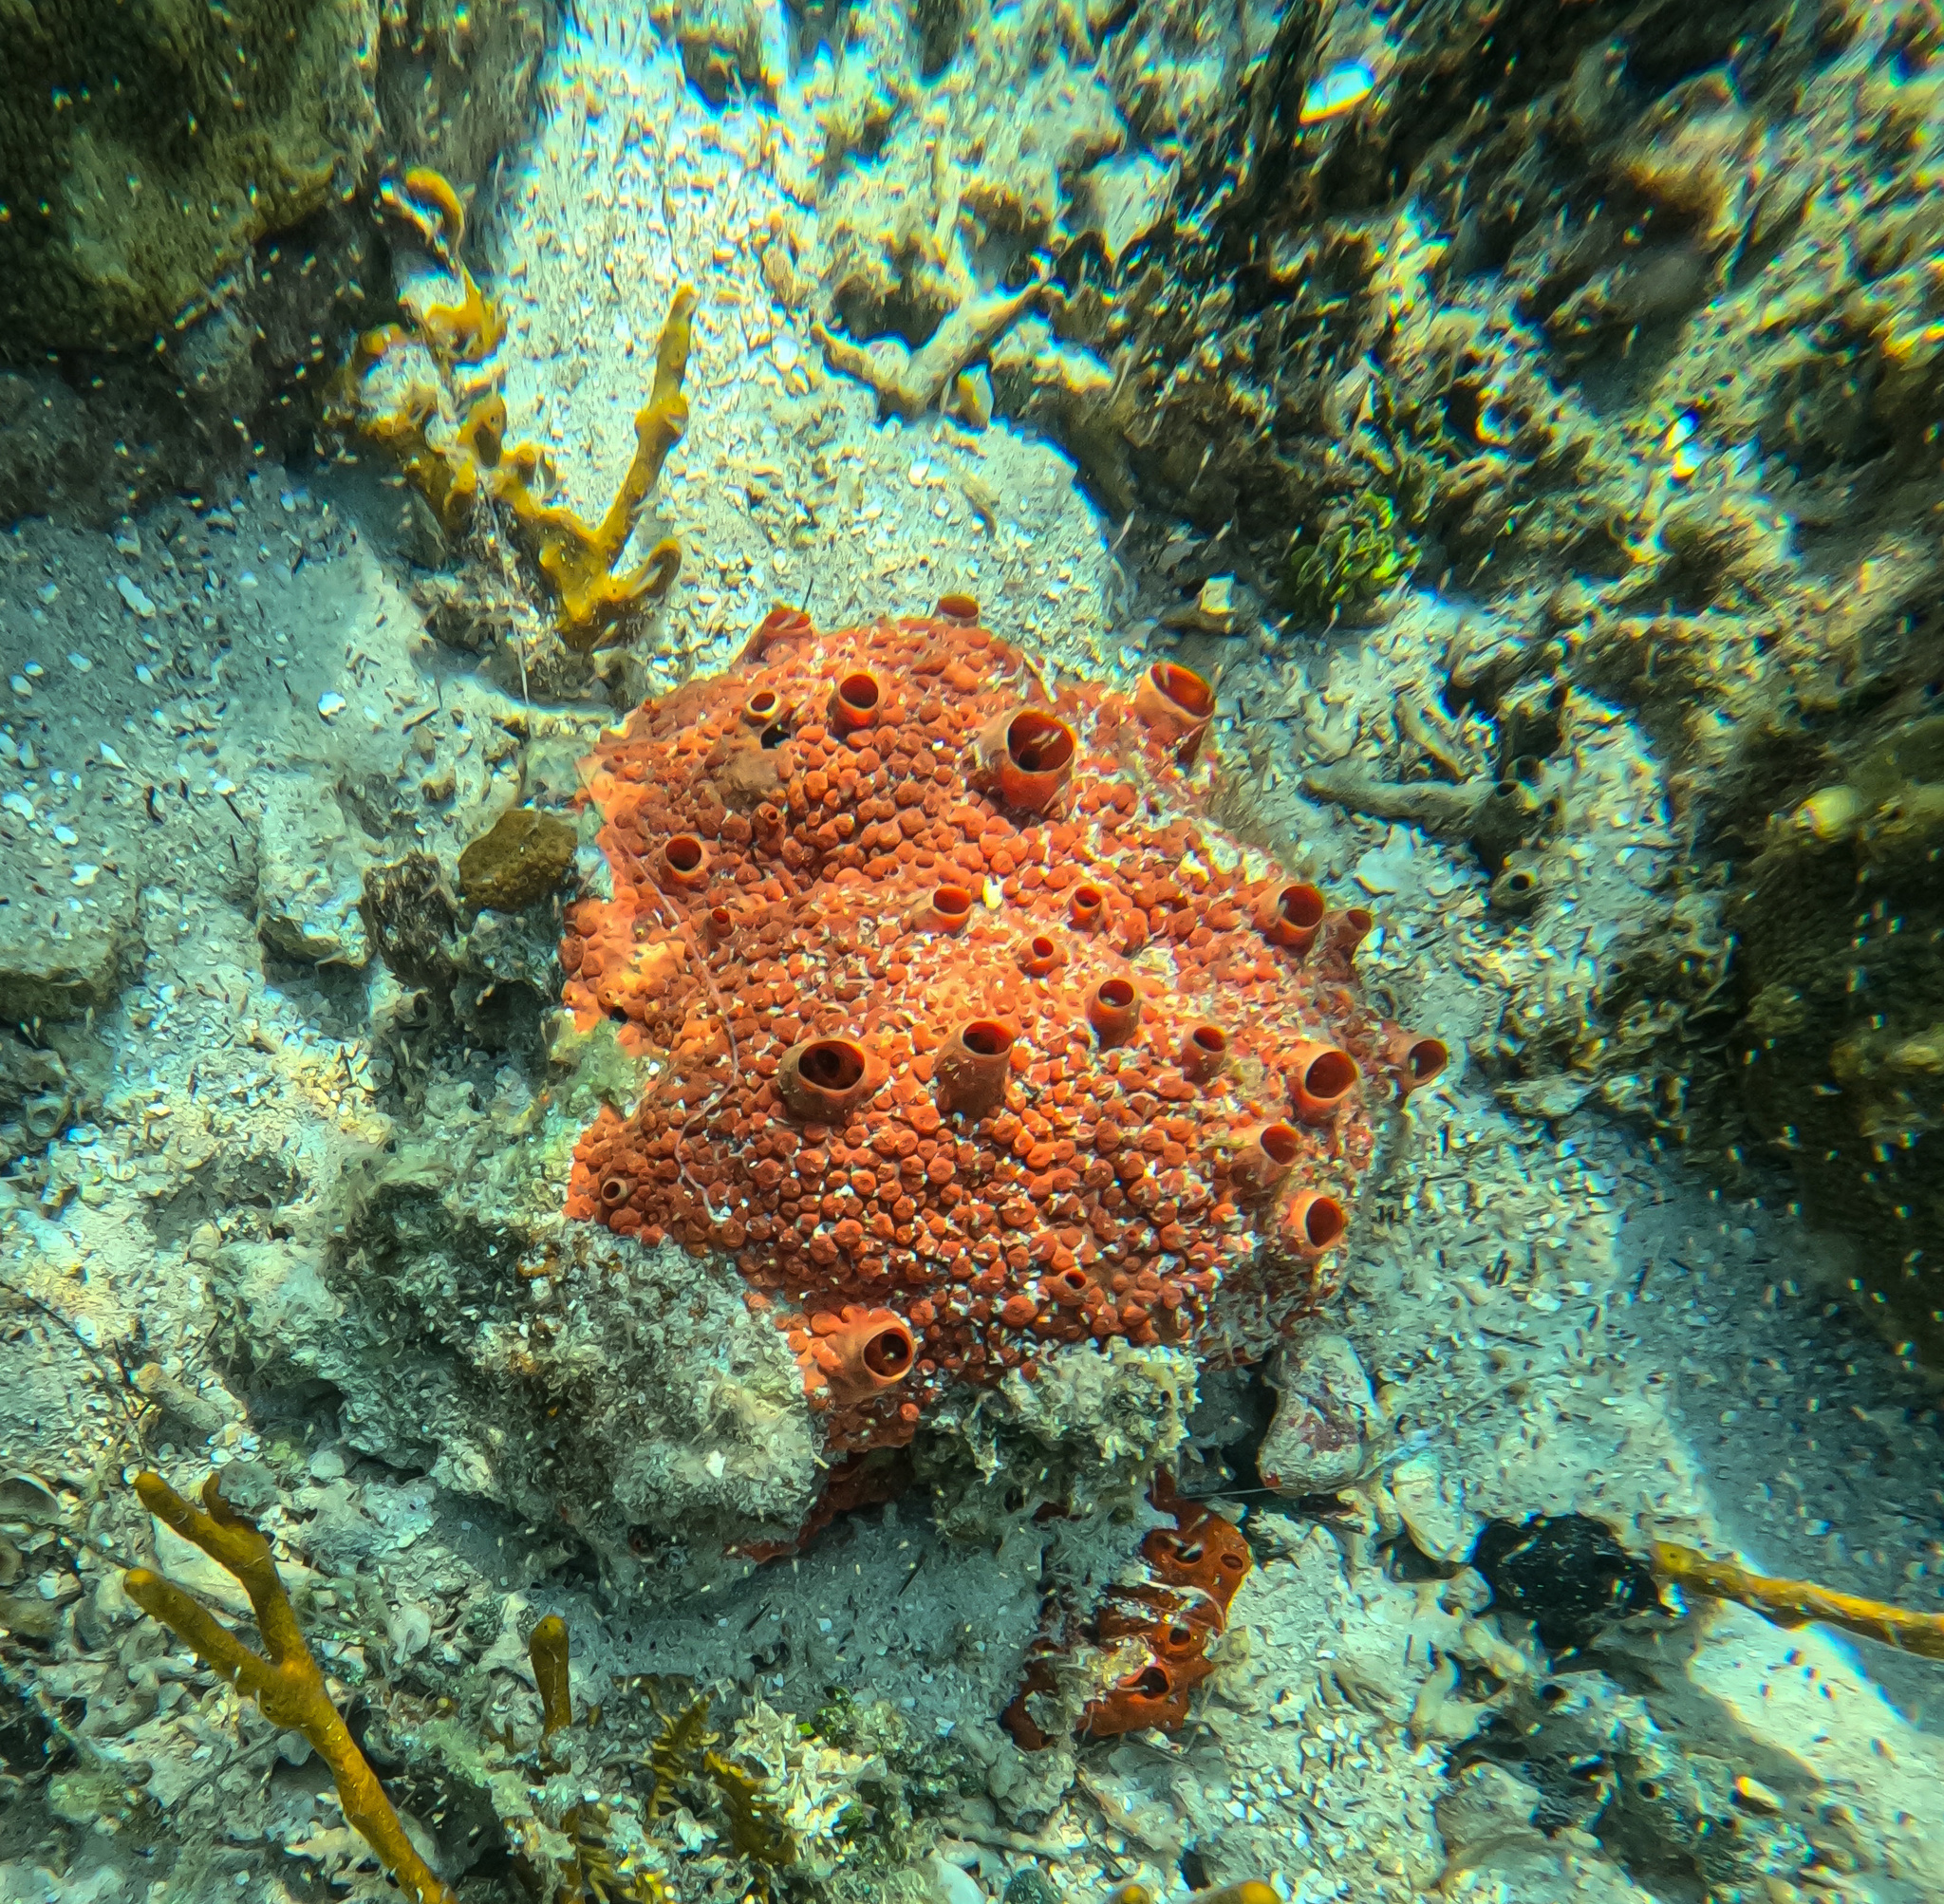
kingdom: Animalia
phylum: Porifera
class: Demospongiae
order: Clionaida
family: Clionaidae
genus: Cliothosa
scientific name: Cliothosa delitrix
